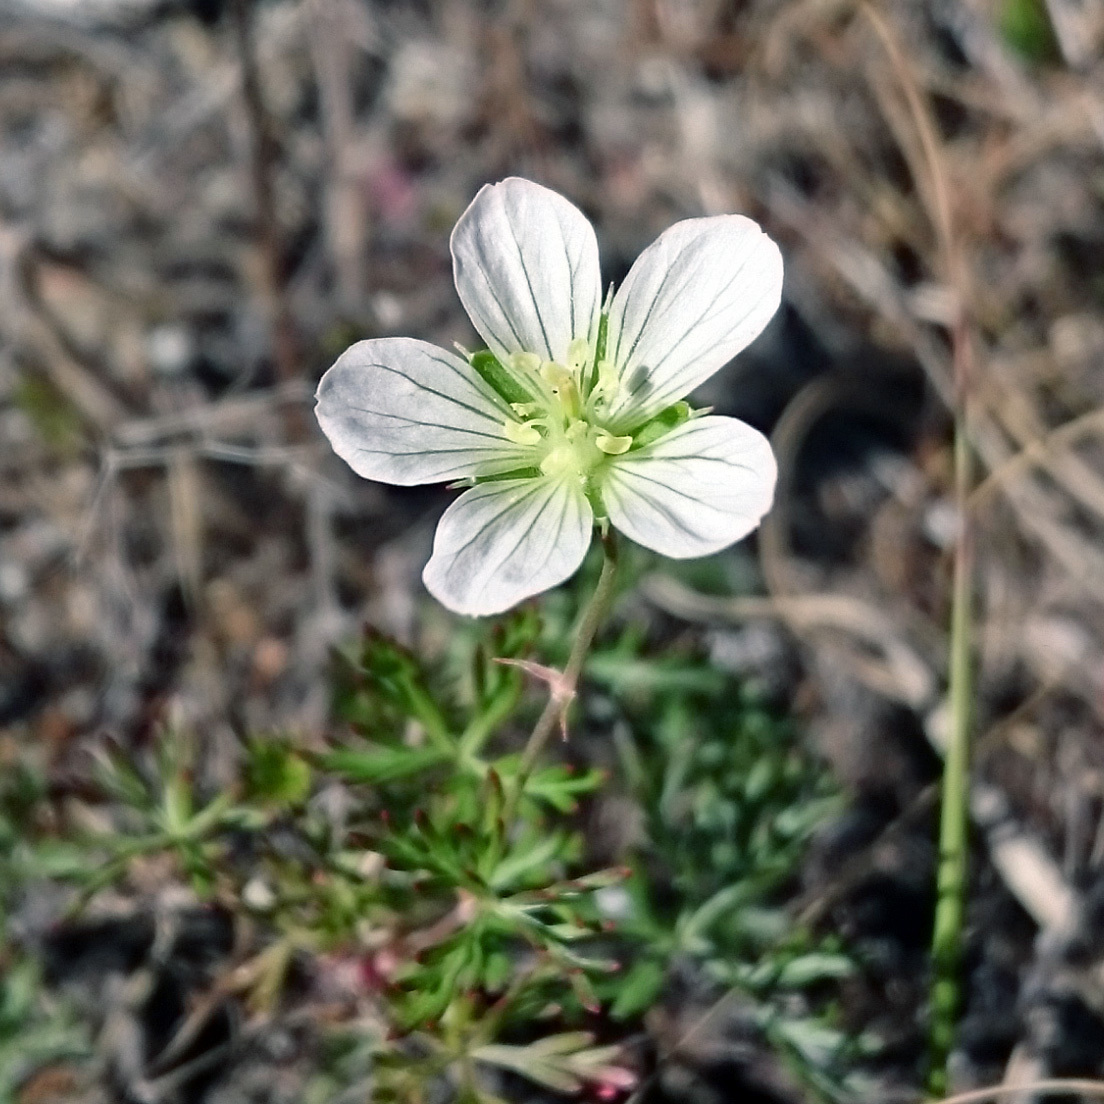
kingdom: Plantae
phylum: Tracheophyta
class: Magnoliopsida
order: Geraniales
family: Geraniaceae
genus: Geranium
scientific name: Geranium incanum
